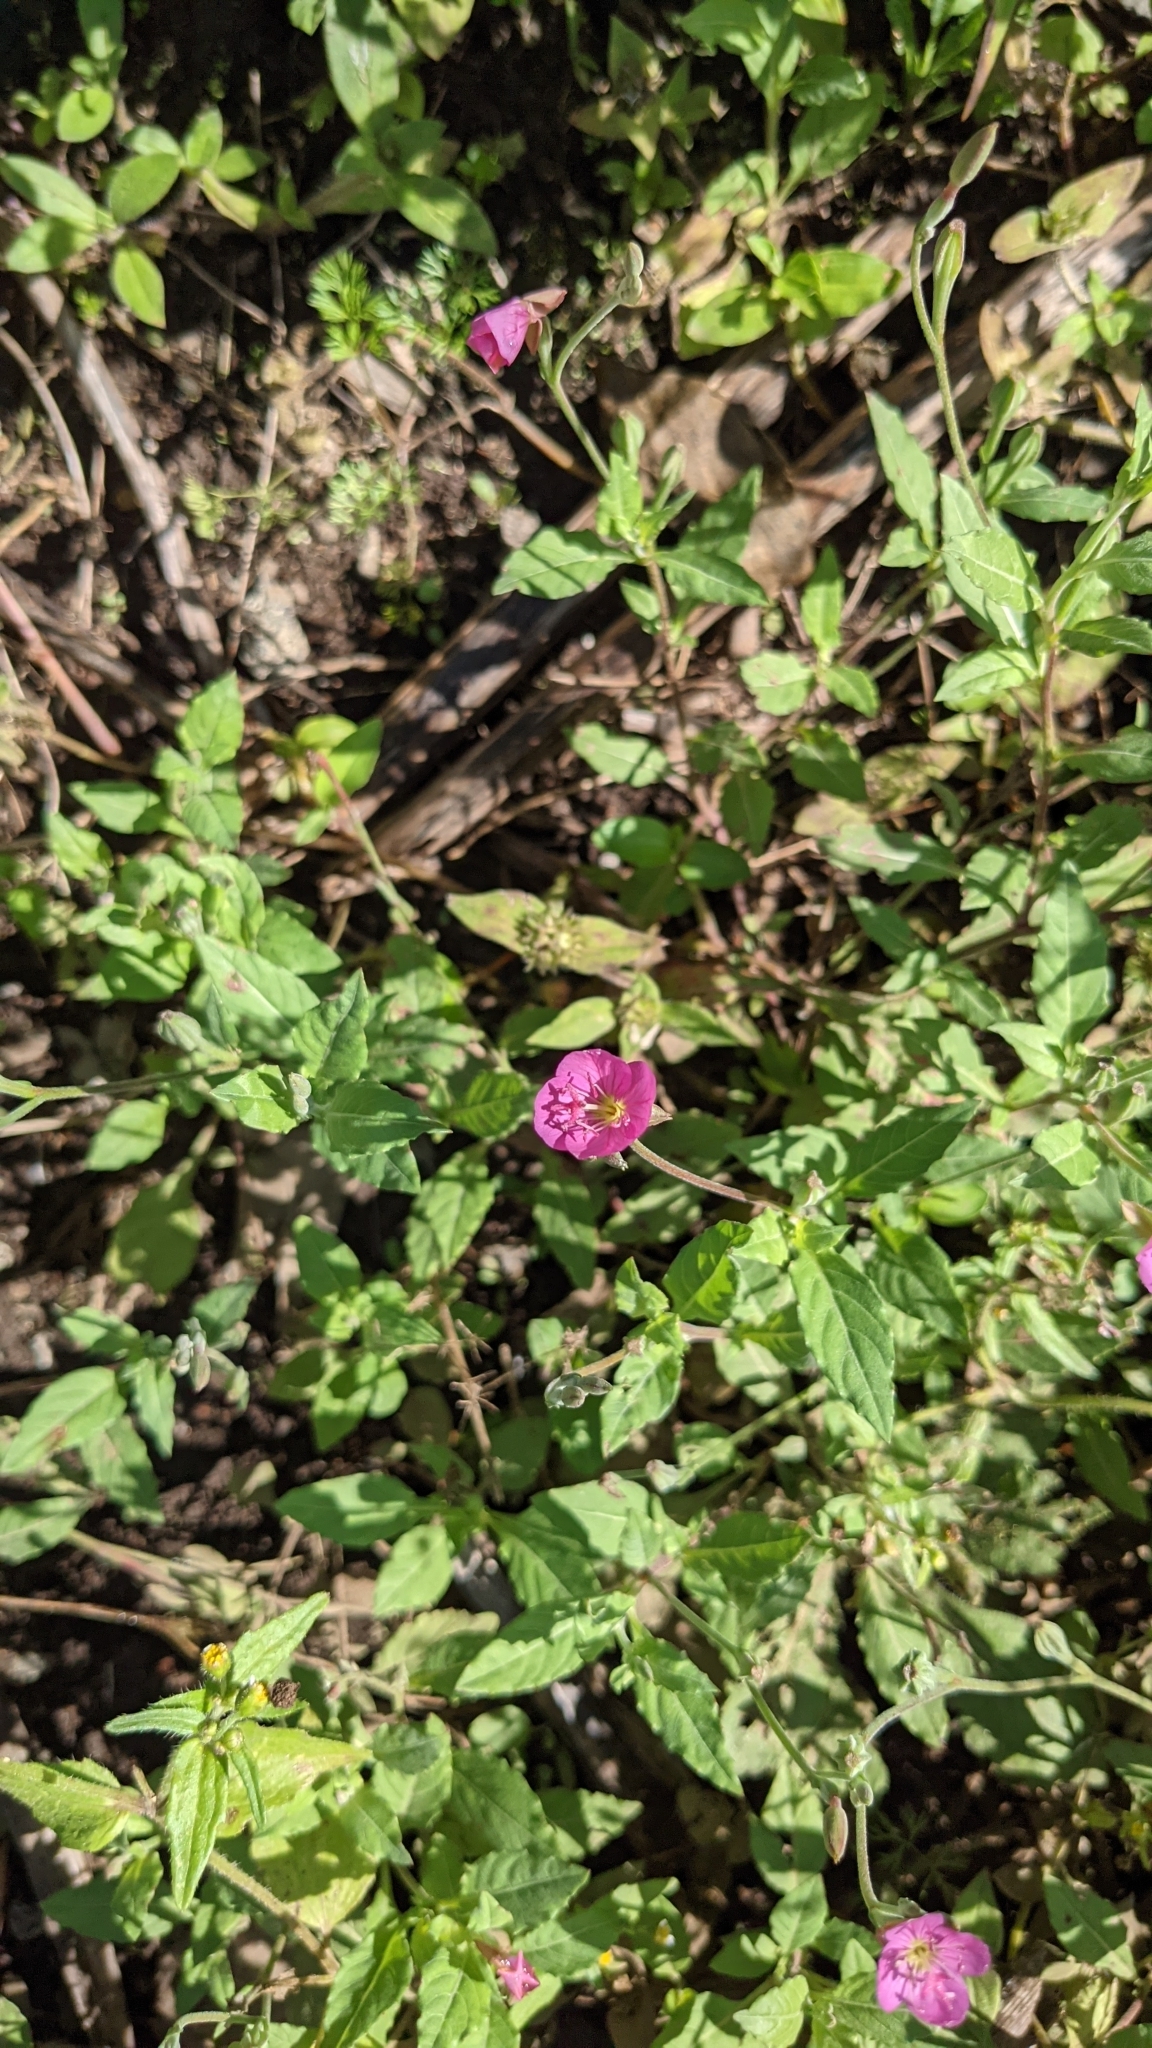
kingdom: Plantae
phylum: Tracheophyta
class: Magnoliopsida
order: Myrtales
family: Onagraceae
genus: Oenothera
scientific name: Oenothera rosea
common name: Rosy evening-primrose
